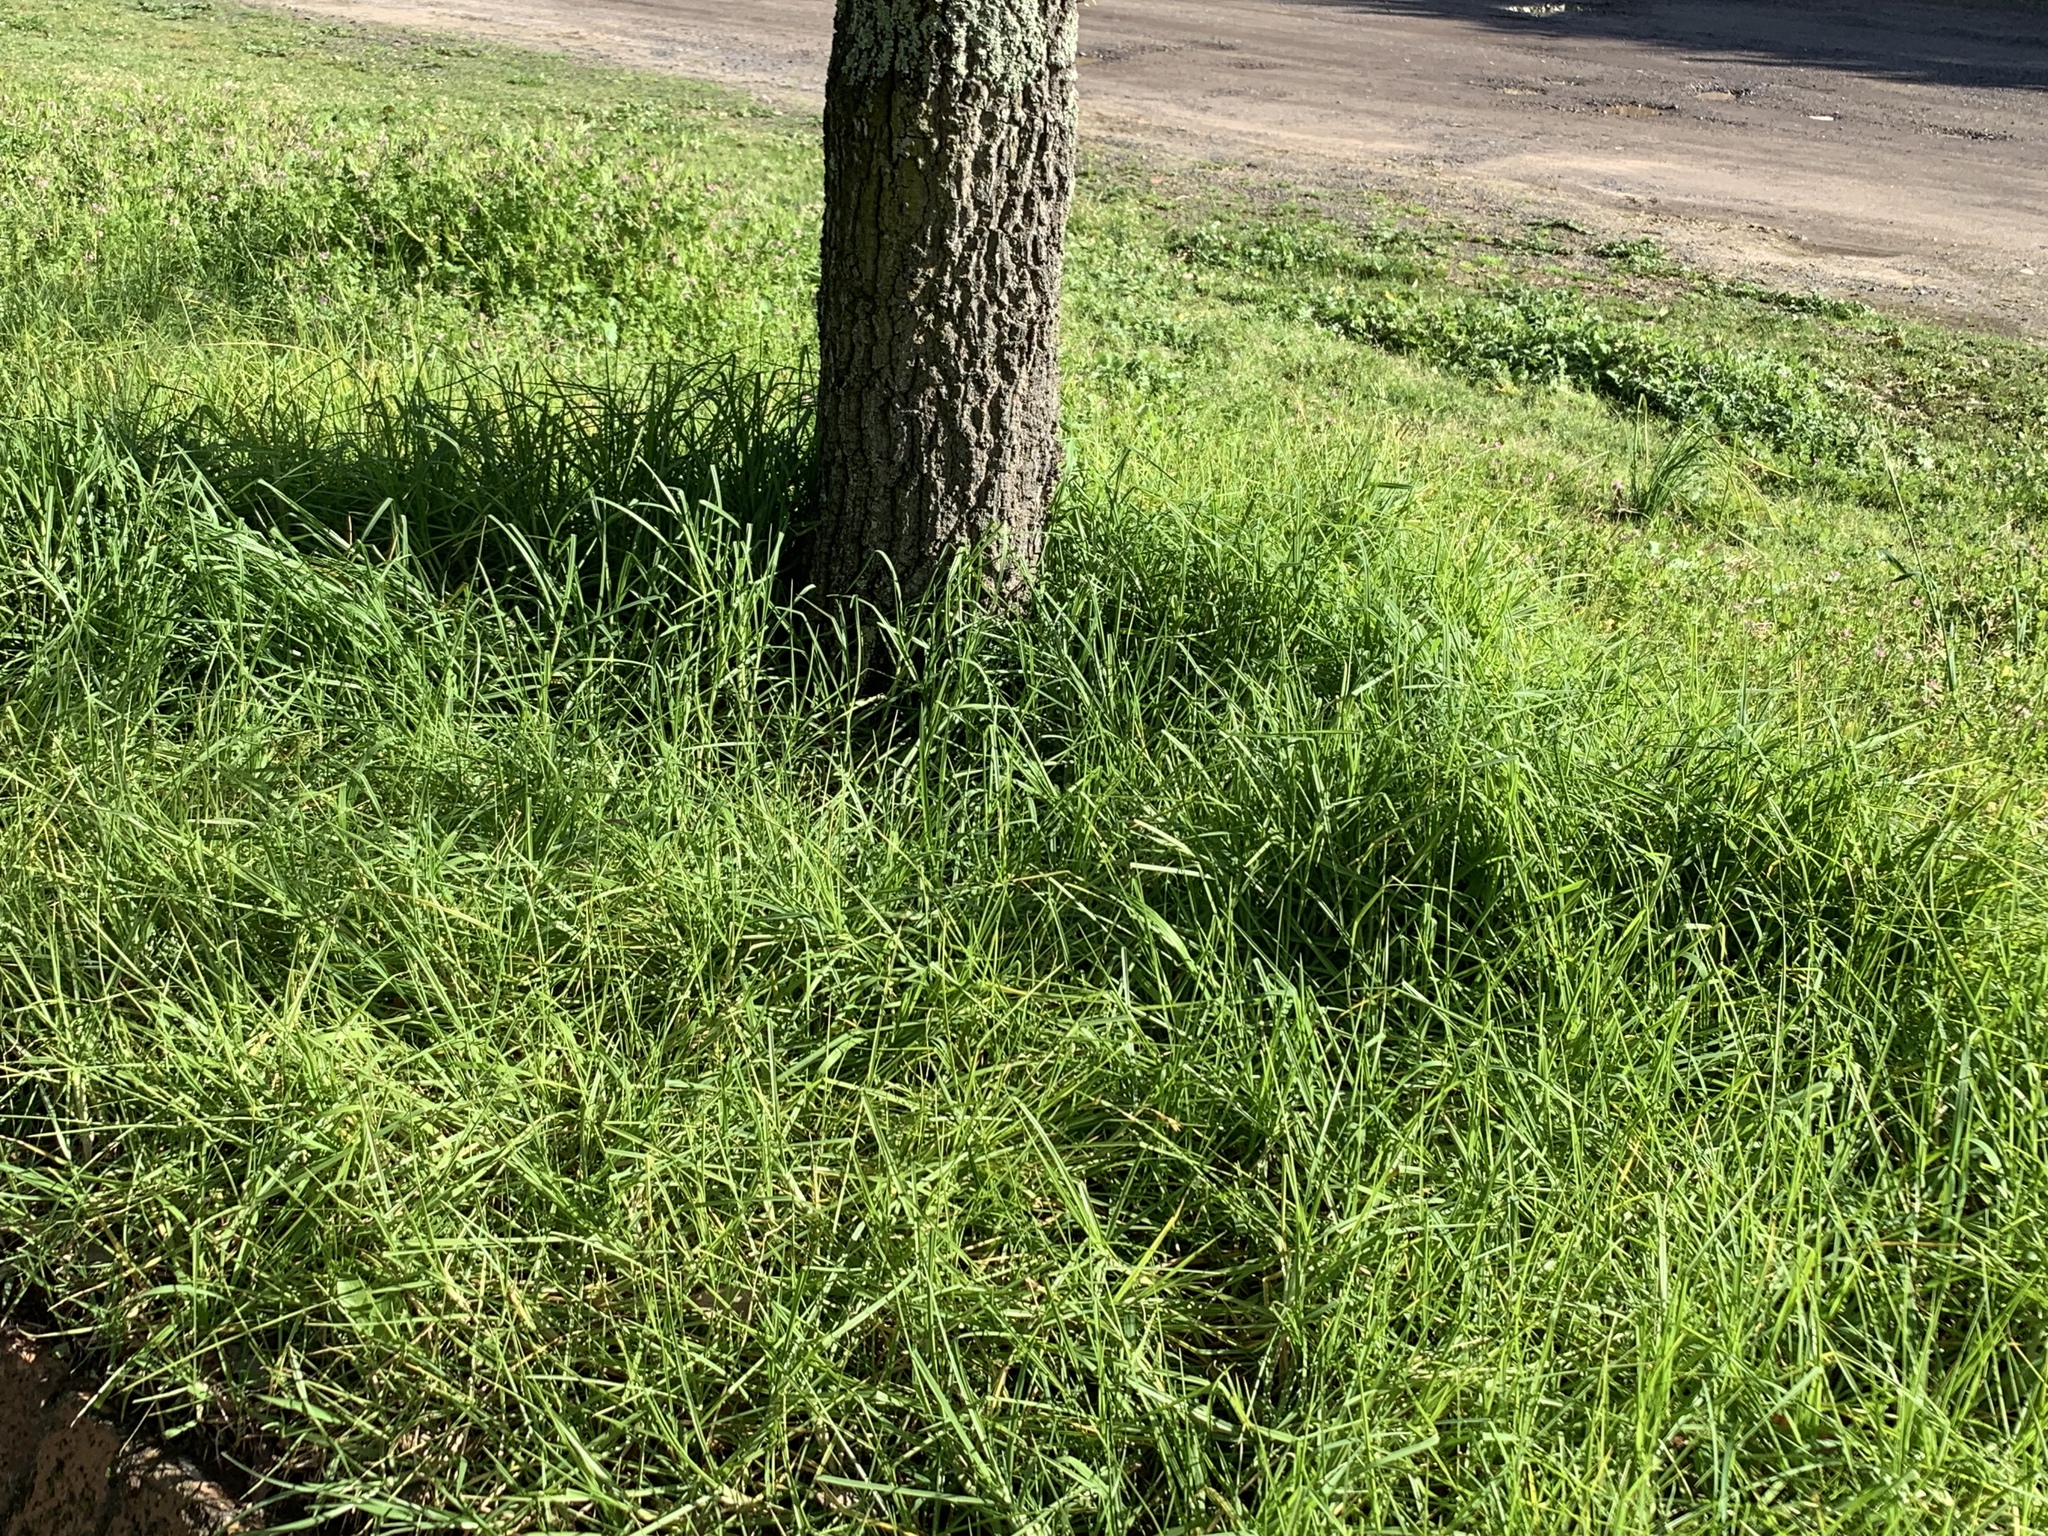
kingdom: Plantae
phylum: Tracheophyta
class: Liliopsida
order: Poales
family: Poaceae
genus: Cenchrus
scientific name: Cenchrus clandestinus
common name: Kikuyugrass
